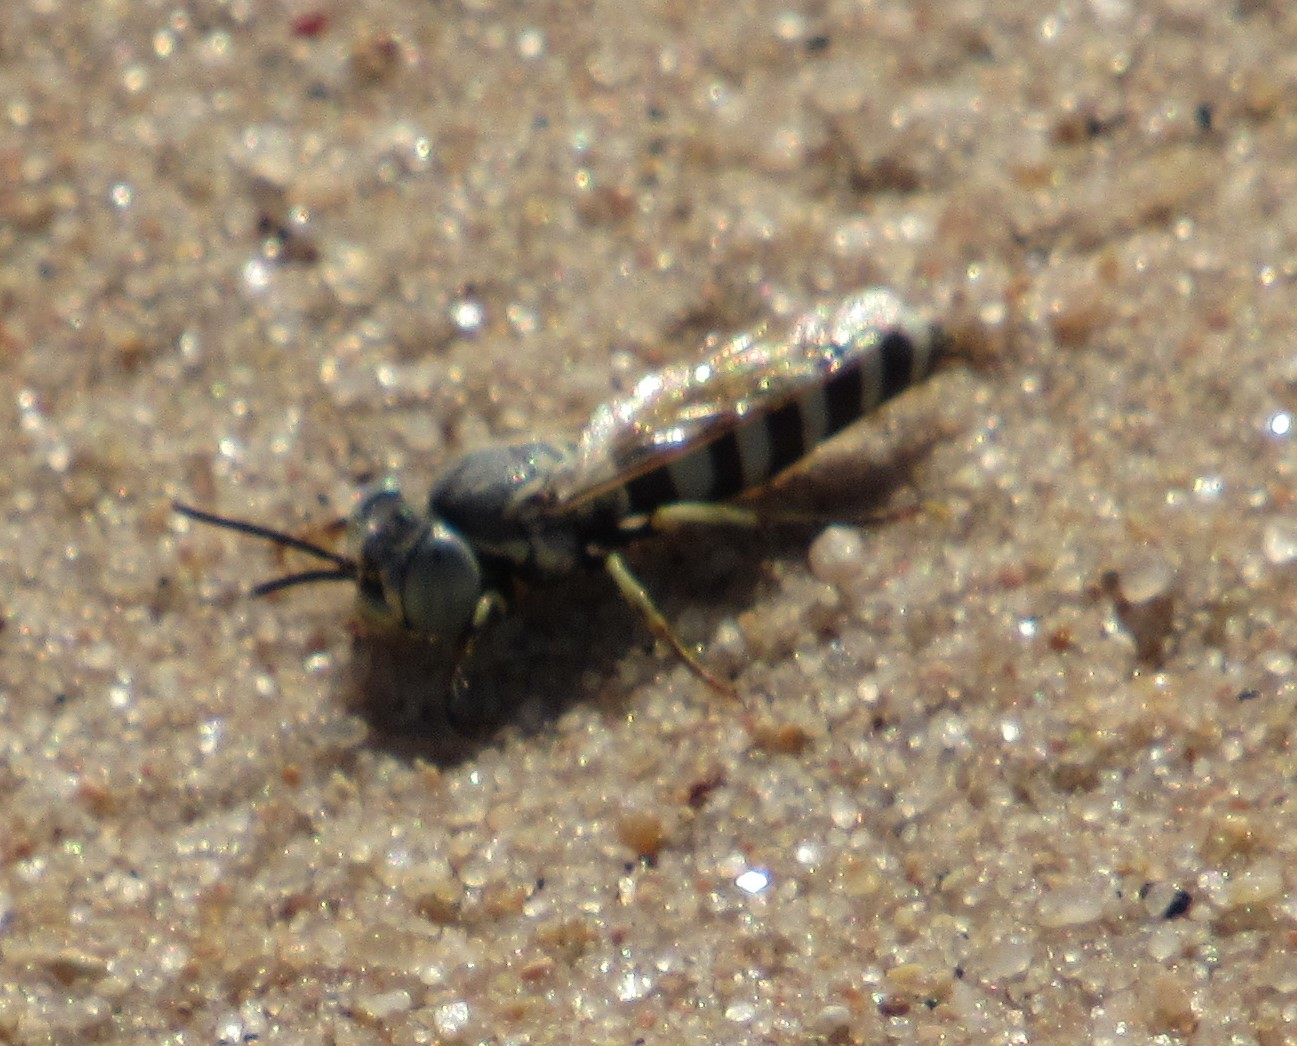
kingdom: Animalia
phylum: Arthropoda
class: Insecta
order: Hymenoptera
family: Crabronidae
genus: Microbembex
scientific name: Microbembex monodonta
